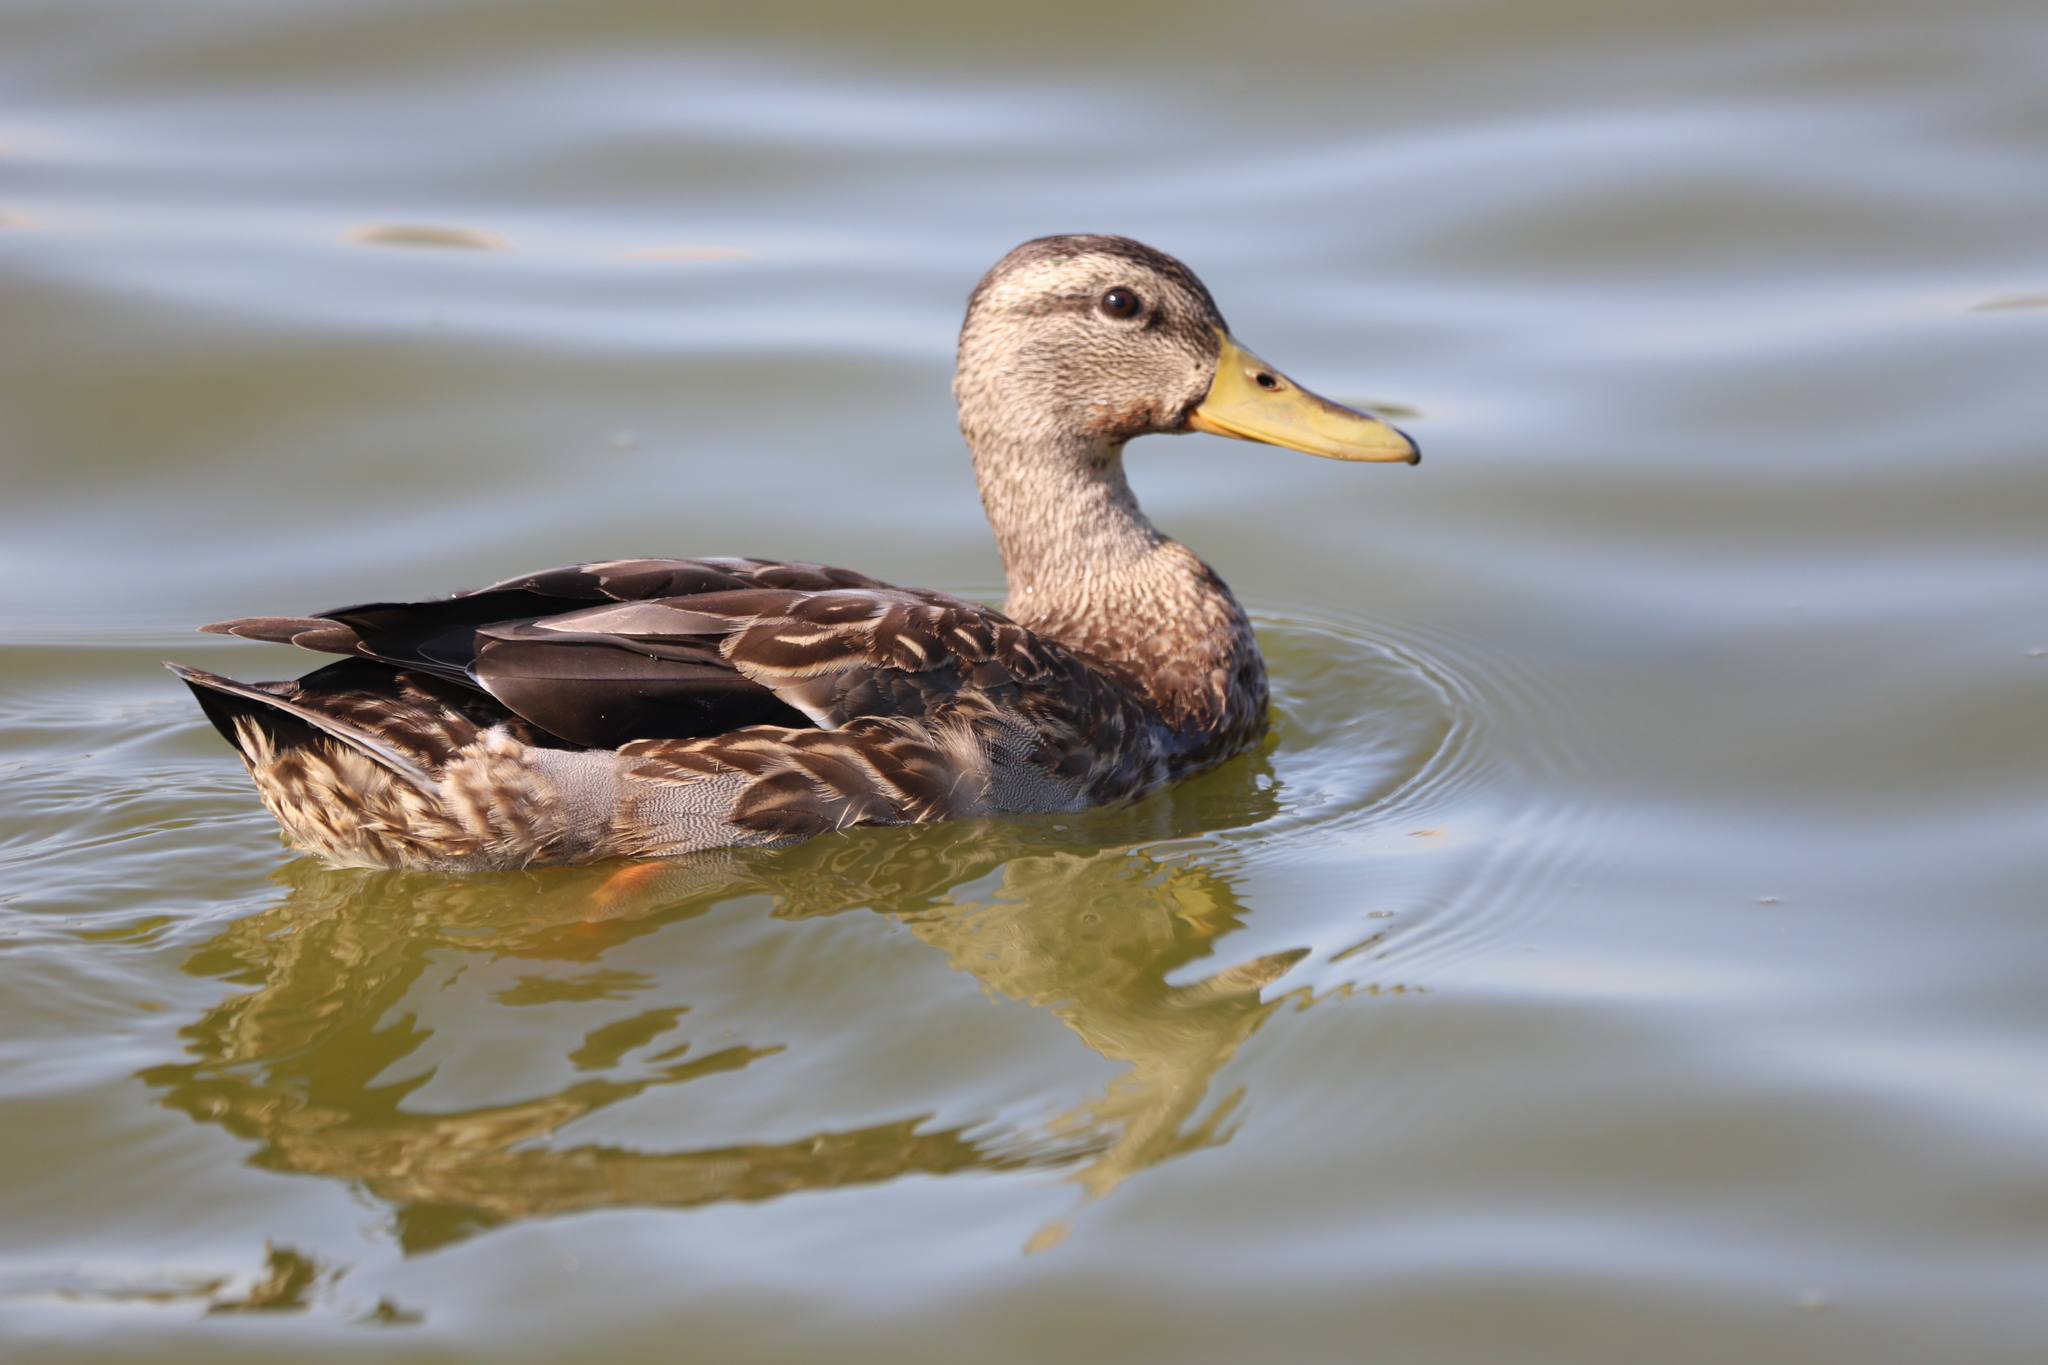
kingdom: Animalia
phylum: Chordata
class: Aves
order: Anseriformes
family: Anatidae
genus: Anas
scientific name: Anas platyrhynchos
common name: Mallard
